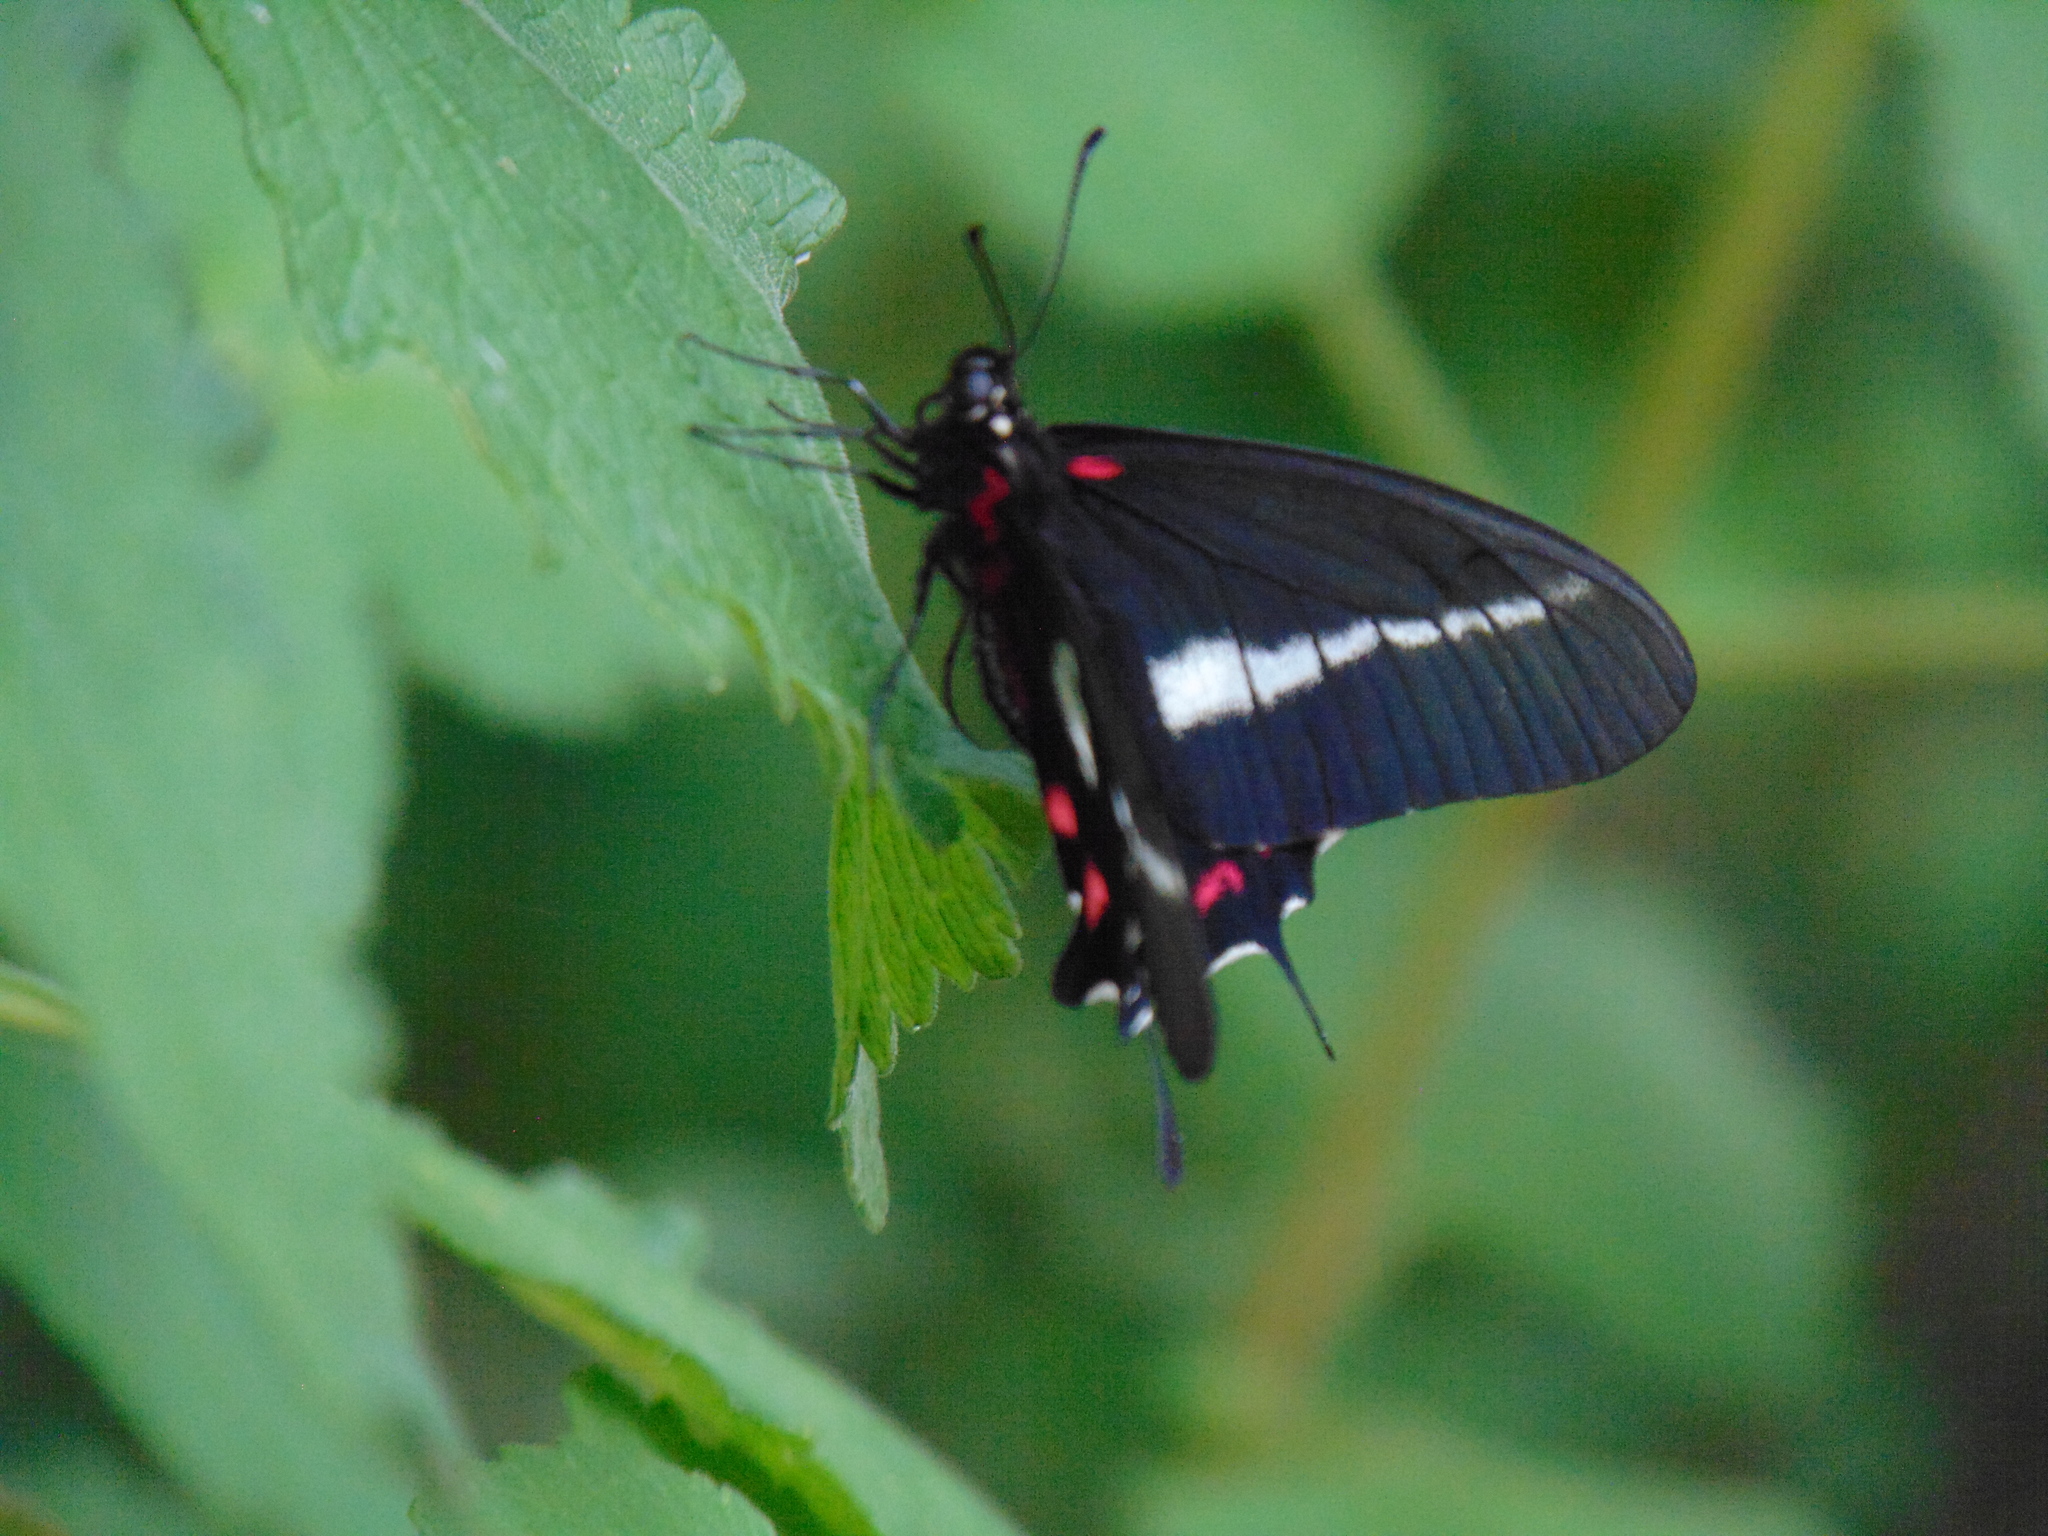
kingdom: Animalia
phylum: Arthropoda
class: Insecta
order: Lepidoptera
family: Papilionidae
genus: Mimoides
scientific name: Mimoides lysithous
